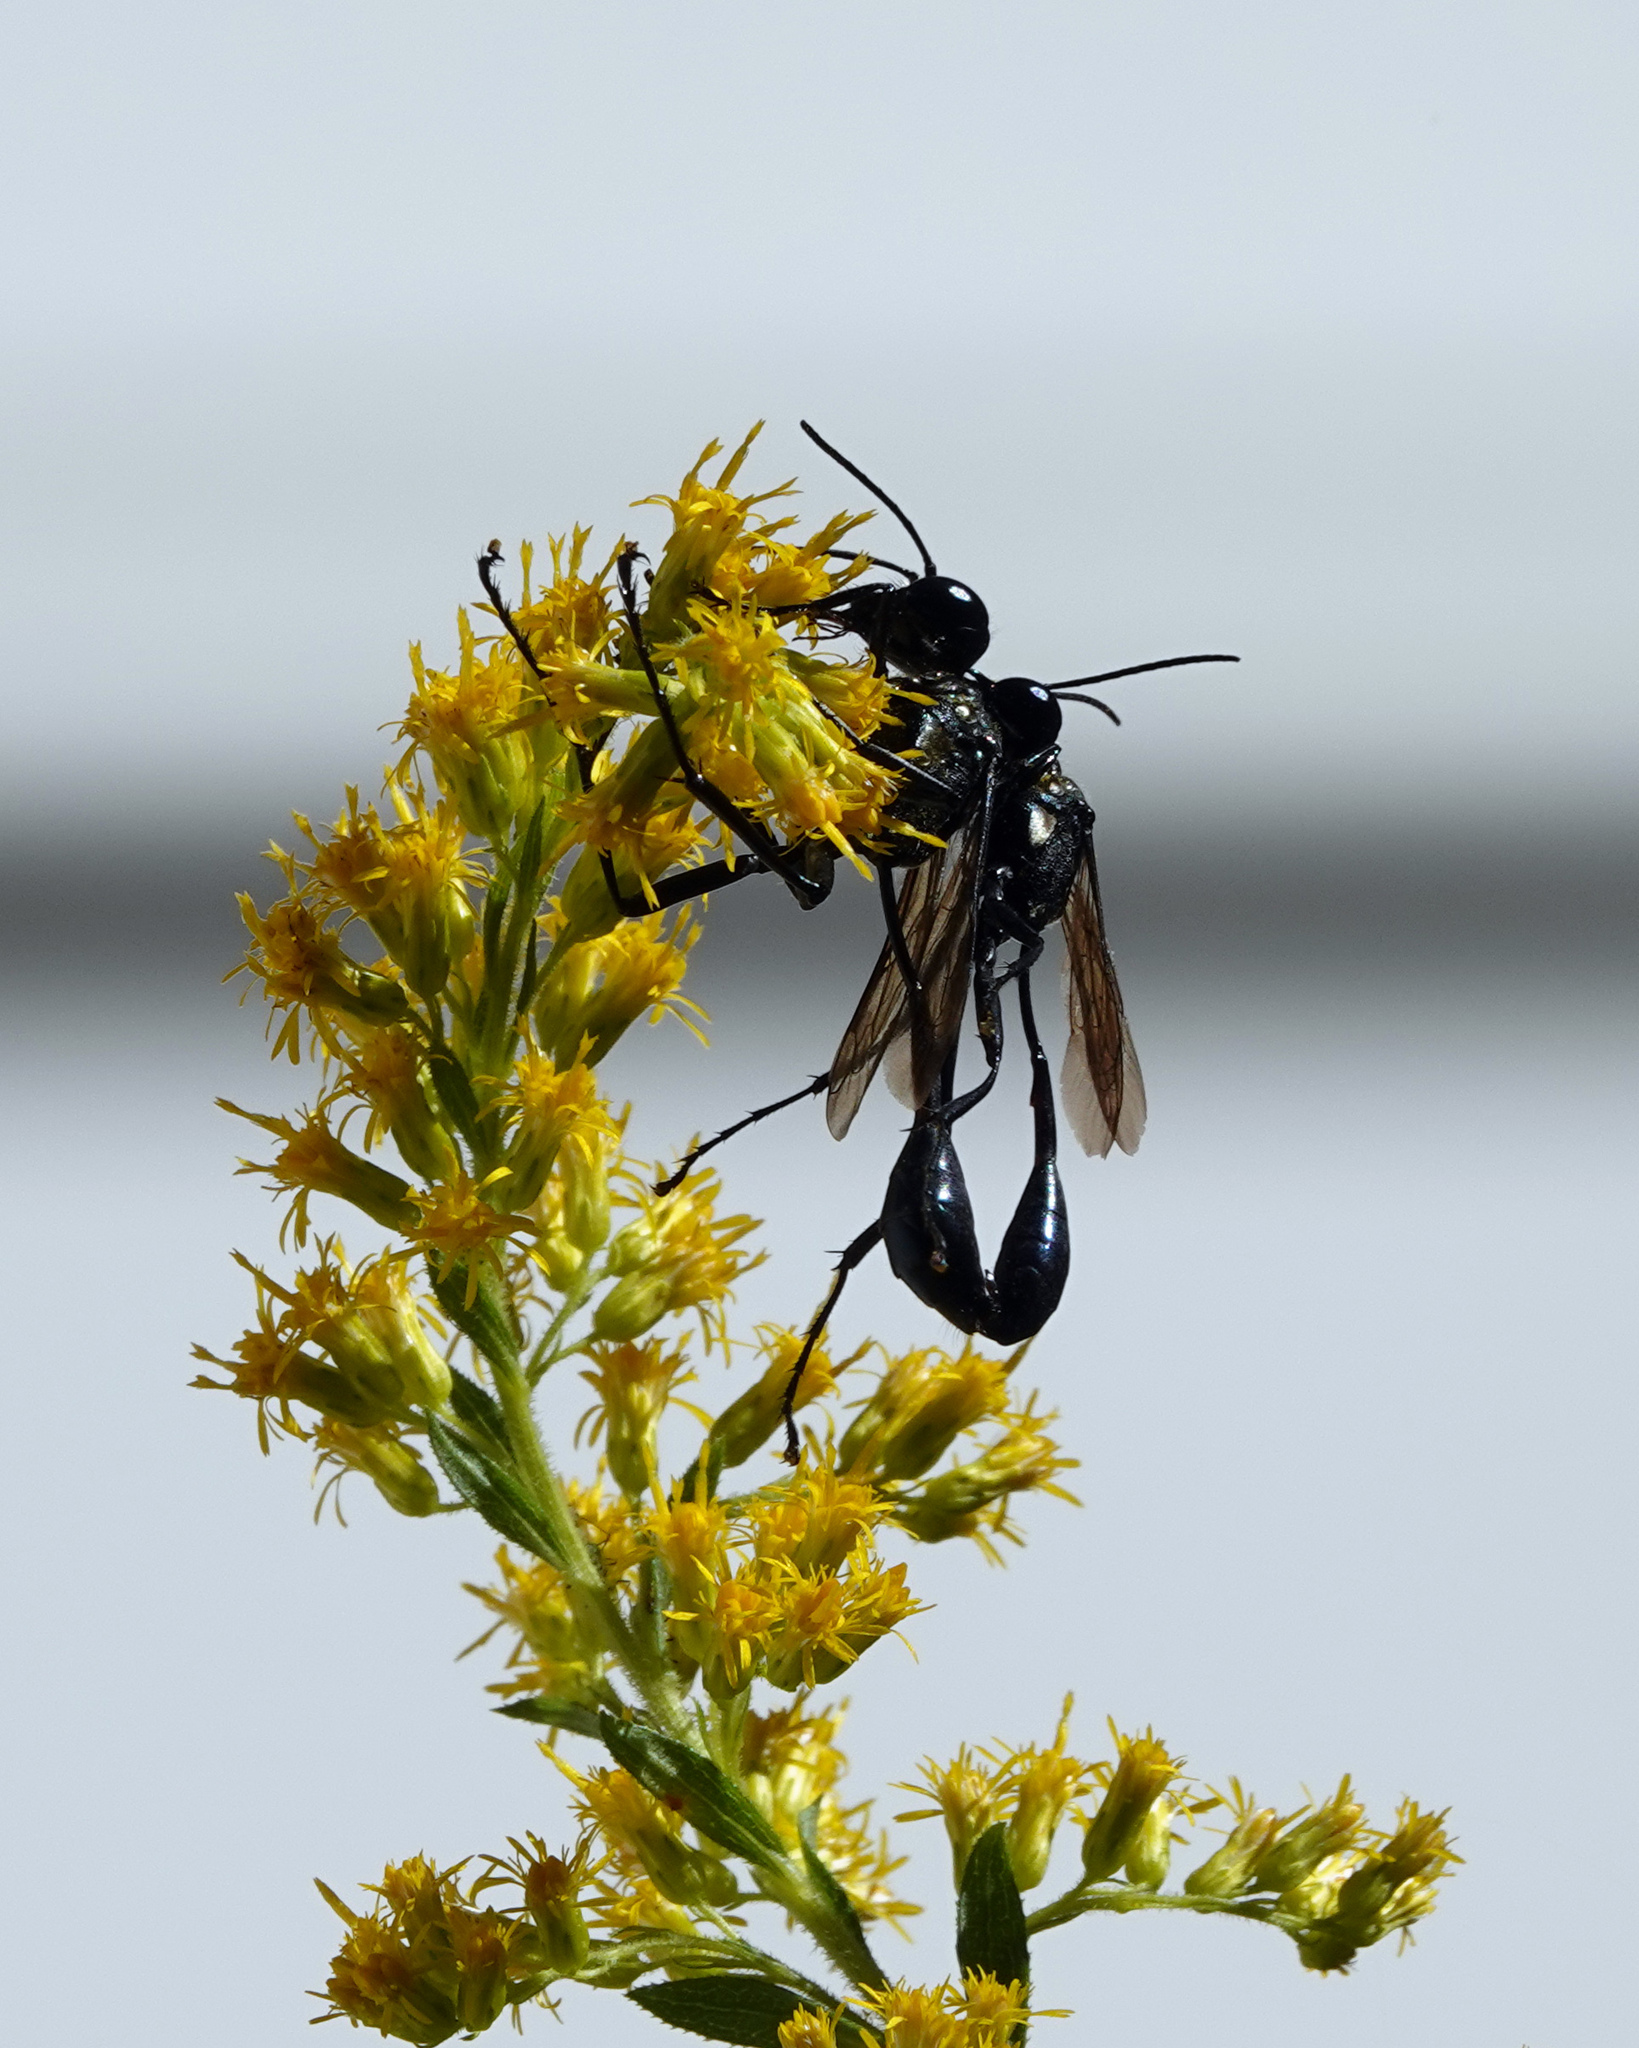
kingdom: Animalia
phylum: Arthropoda
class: Insecta
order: Hymenoptera
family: Sphecidae
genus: Eremnophila
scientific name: Eremnophila aureonotata
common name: Gold-marked thread-waisted wasp
